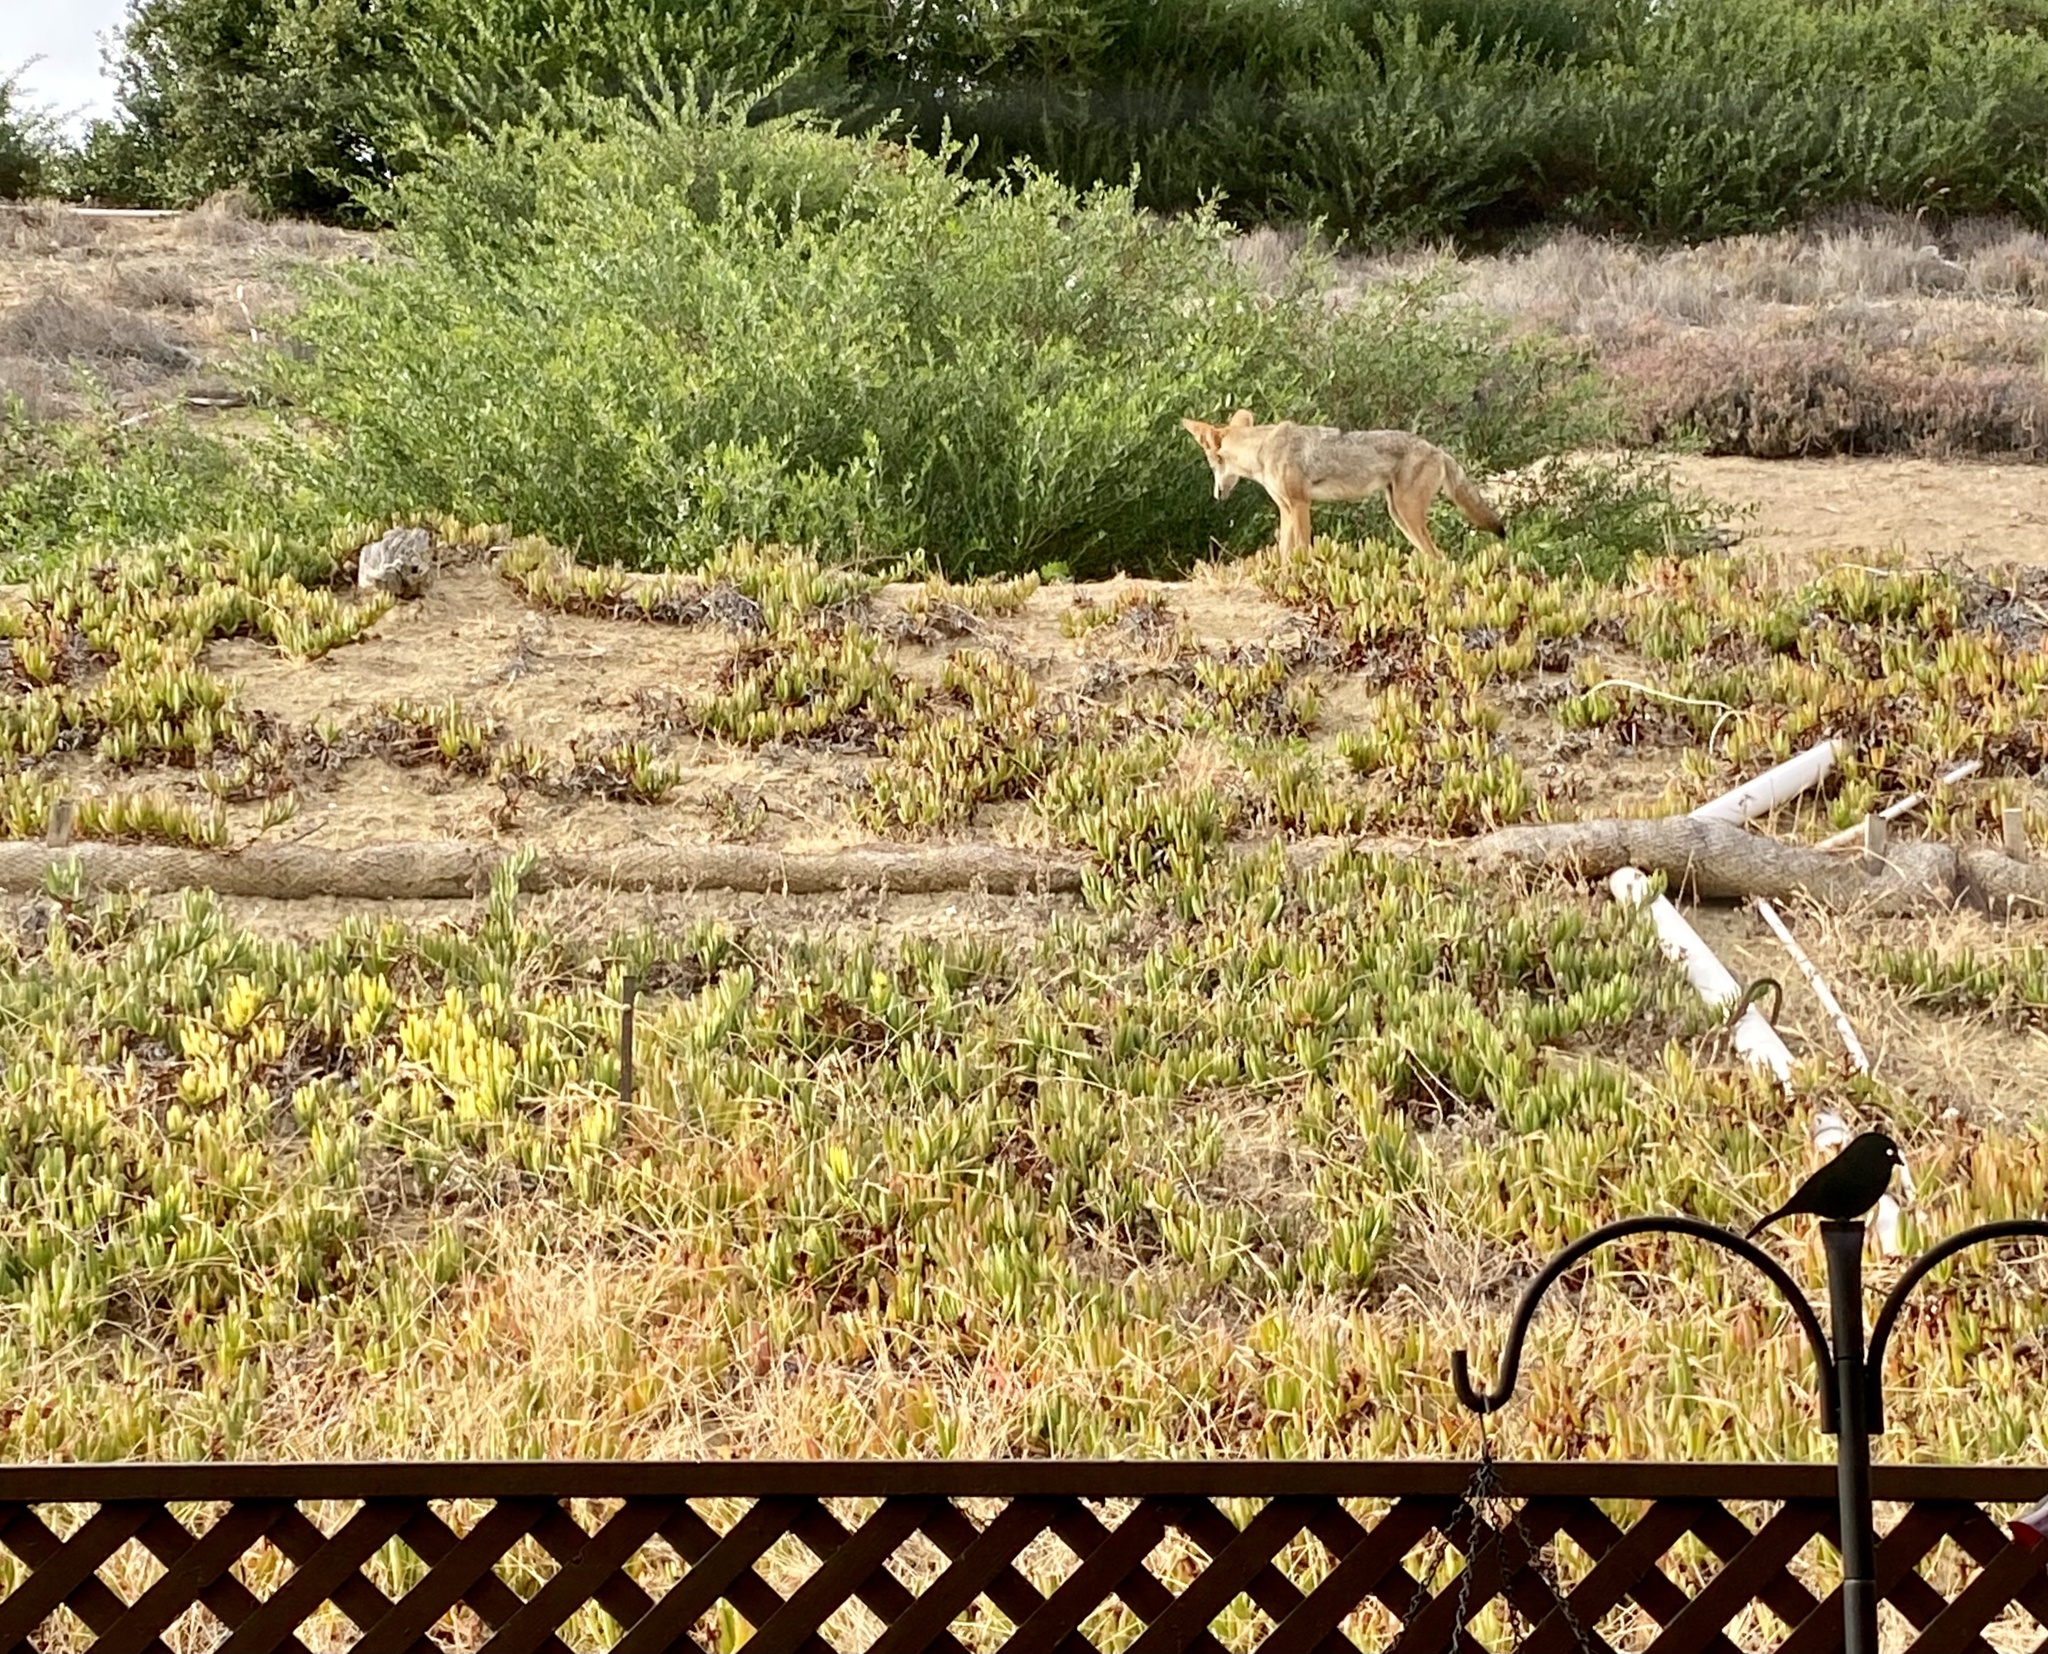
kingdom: Animalia
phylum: Chordata
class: Mammalia
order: Carnivora
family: Canidae
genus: Canis
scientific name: Canis latrans
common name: Coyote
